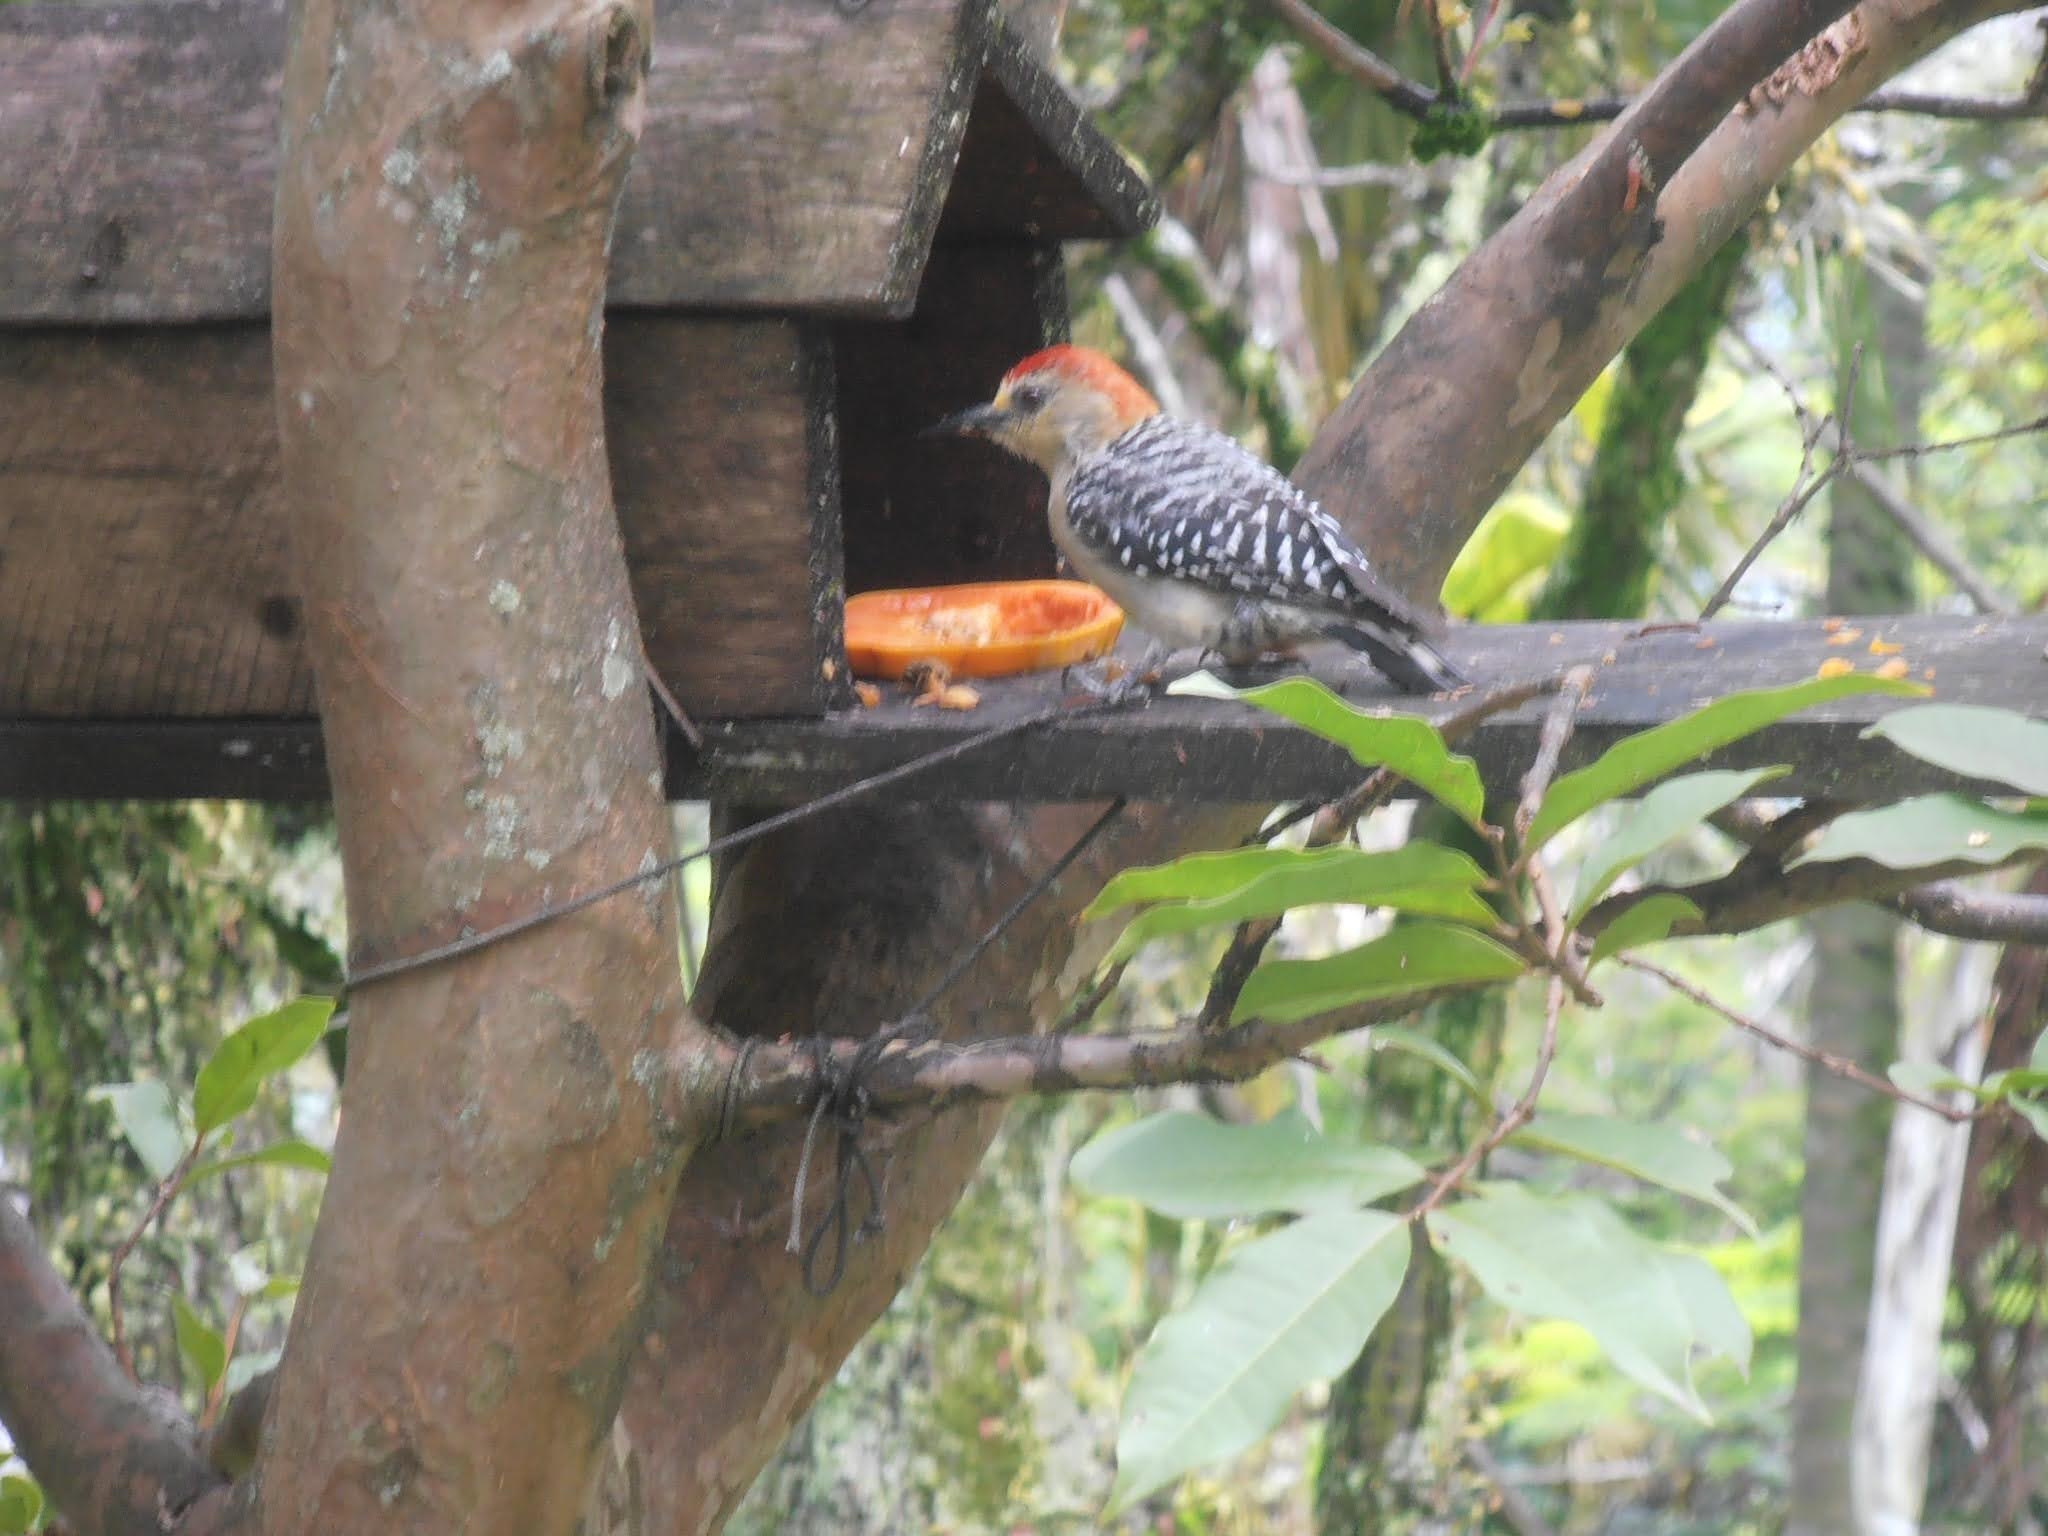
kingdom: Animalia
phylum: Chordata
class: Aves
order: Piciformes
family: Picidae
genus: Melanerpes
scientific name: Melanerpes rubricapillus
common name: Red-crowned woodpecker
